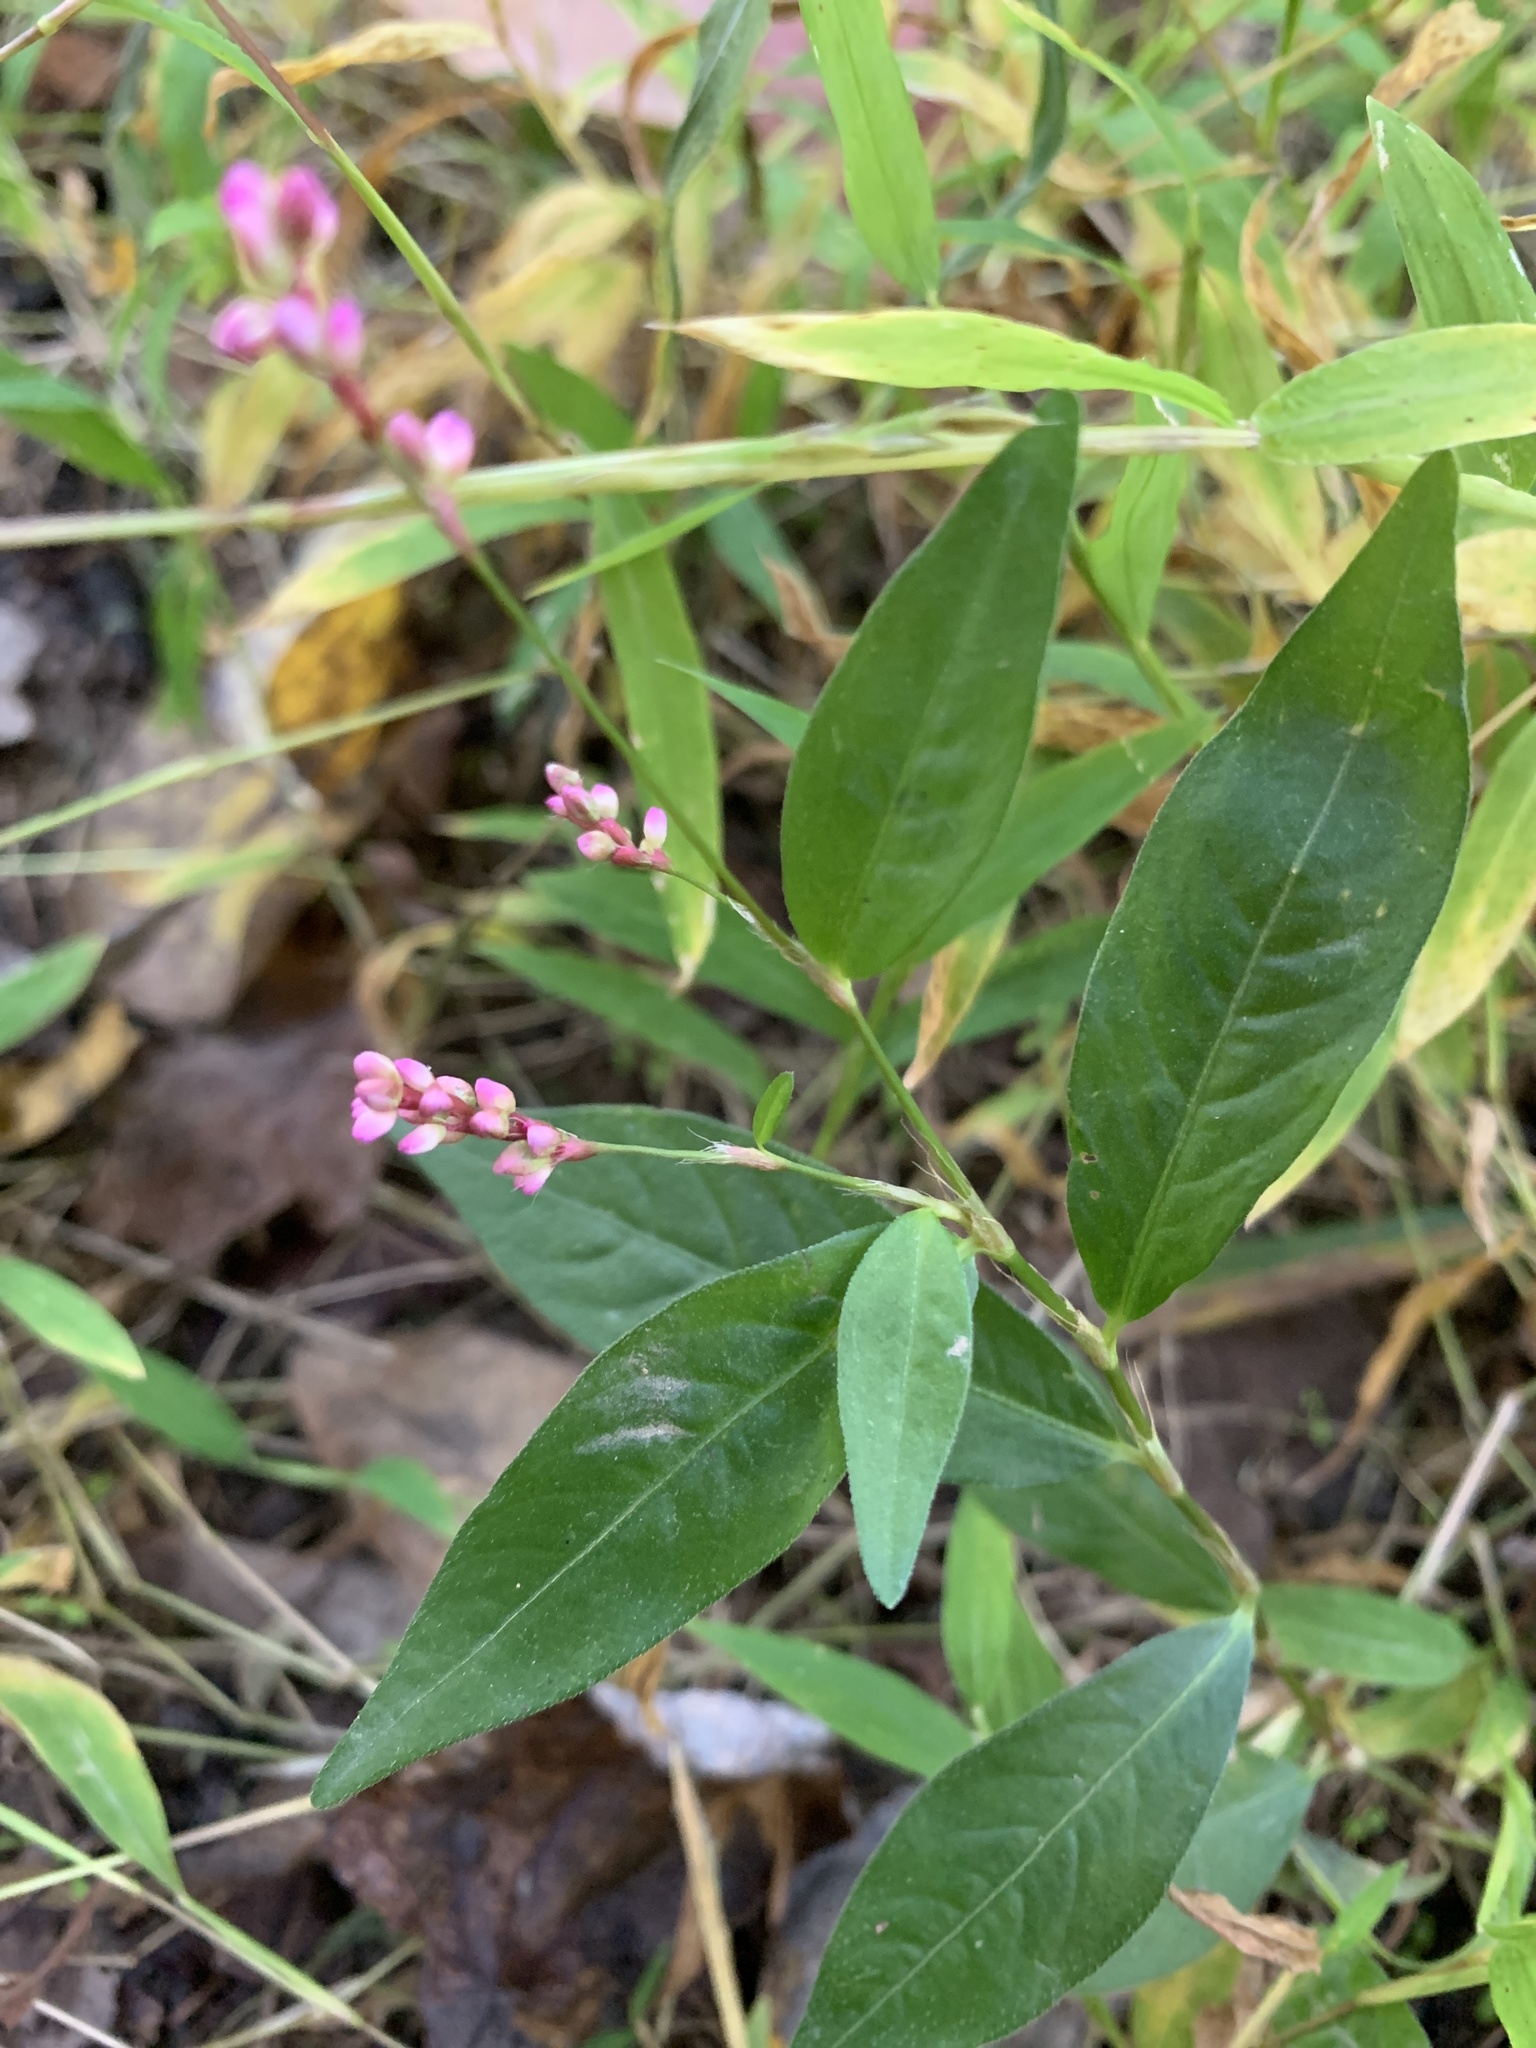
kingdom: Plantae
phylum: Tracheophyta
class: Magnoliopsida
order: Caryophyllales
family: Polygonaceae
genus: Persicaria
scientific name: Persicaria longiseta
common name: Bristly lady's-thumb
